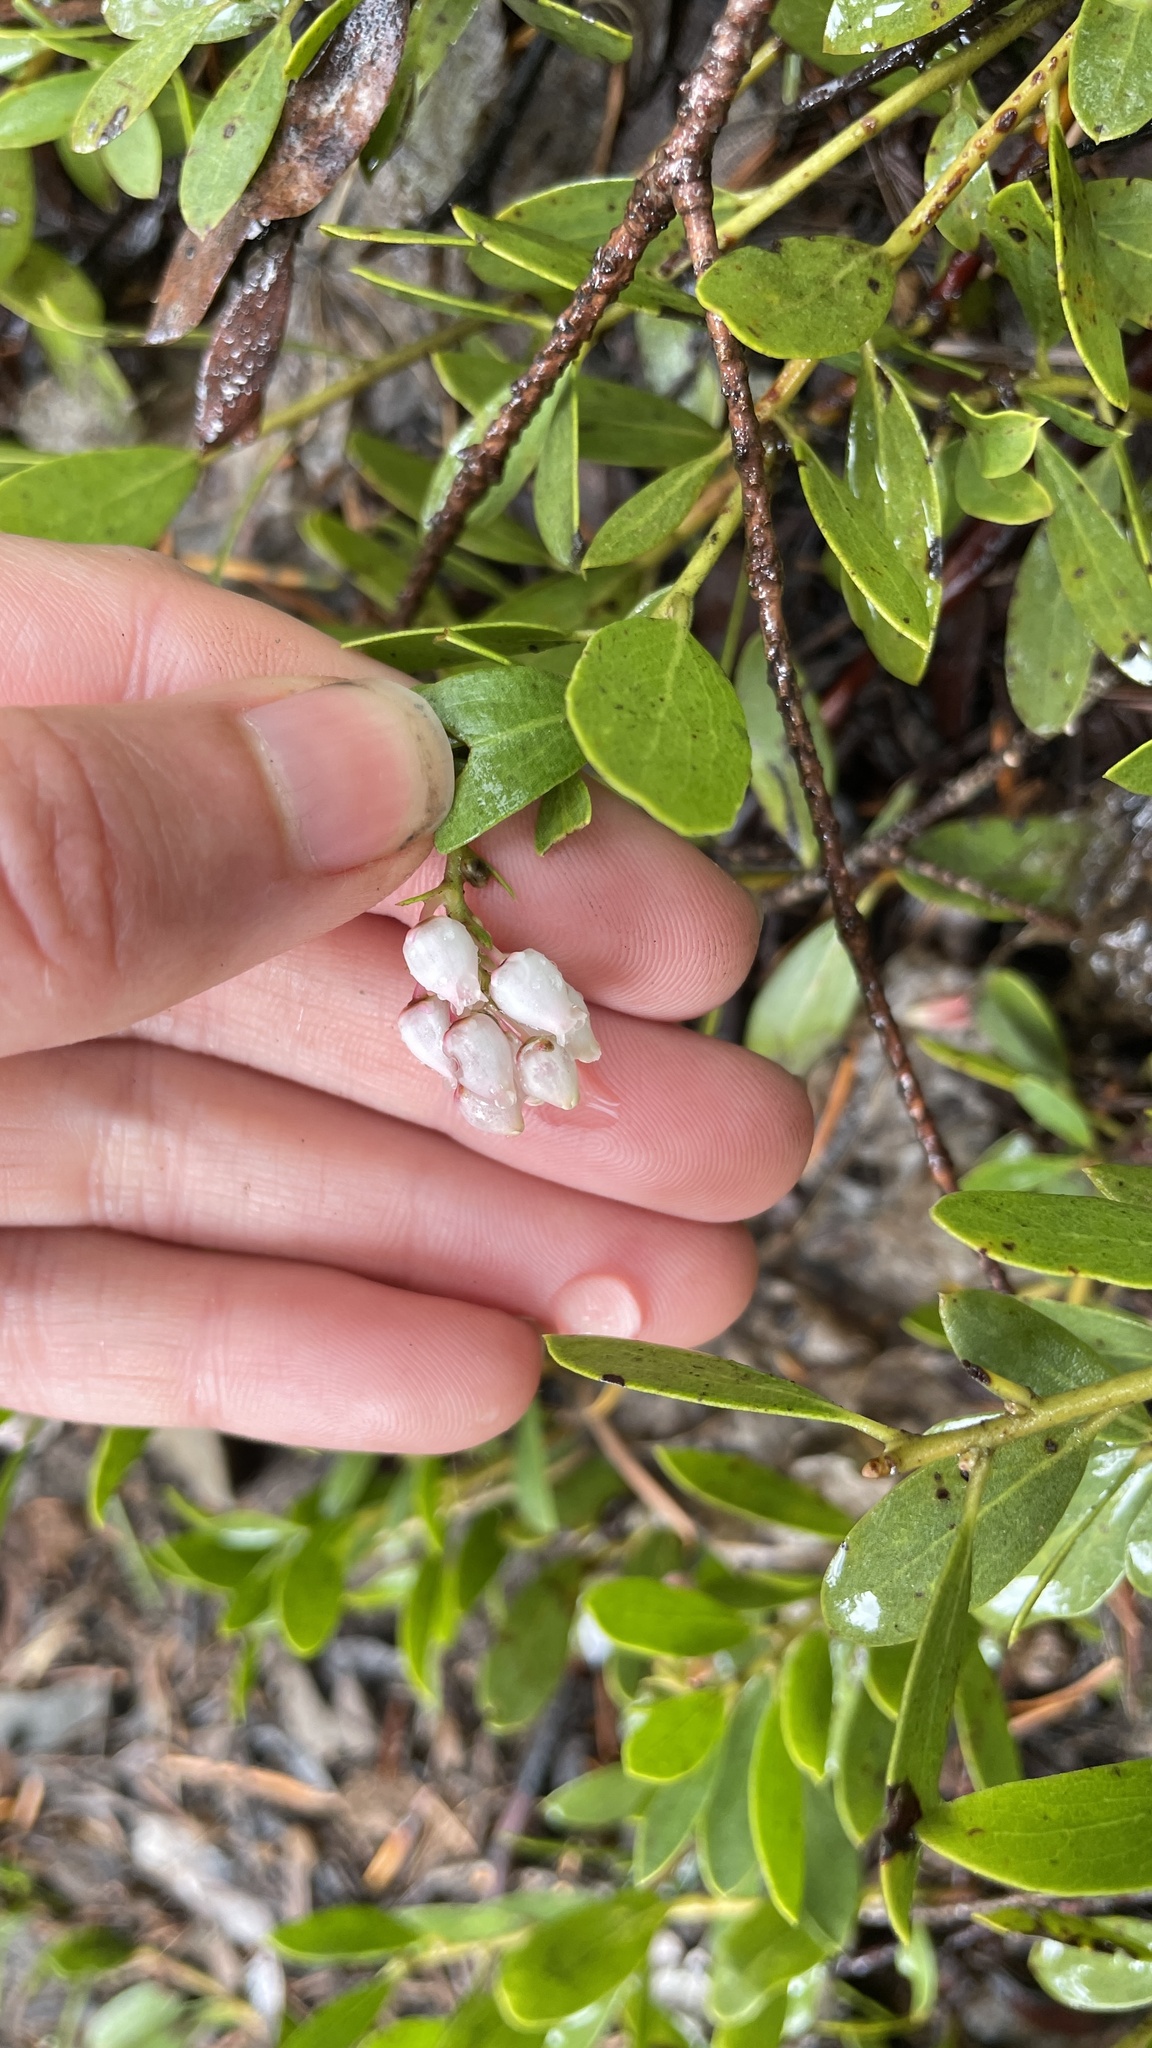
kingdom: Plantae
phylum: Tracheophyta
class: Magnoliopsida
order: Ericales
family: Ericaceae
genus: Arctostaphylos
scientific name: Arctostaphylos nevadensis
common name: Pinemat manzanita
